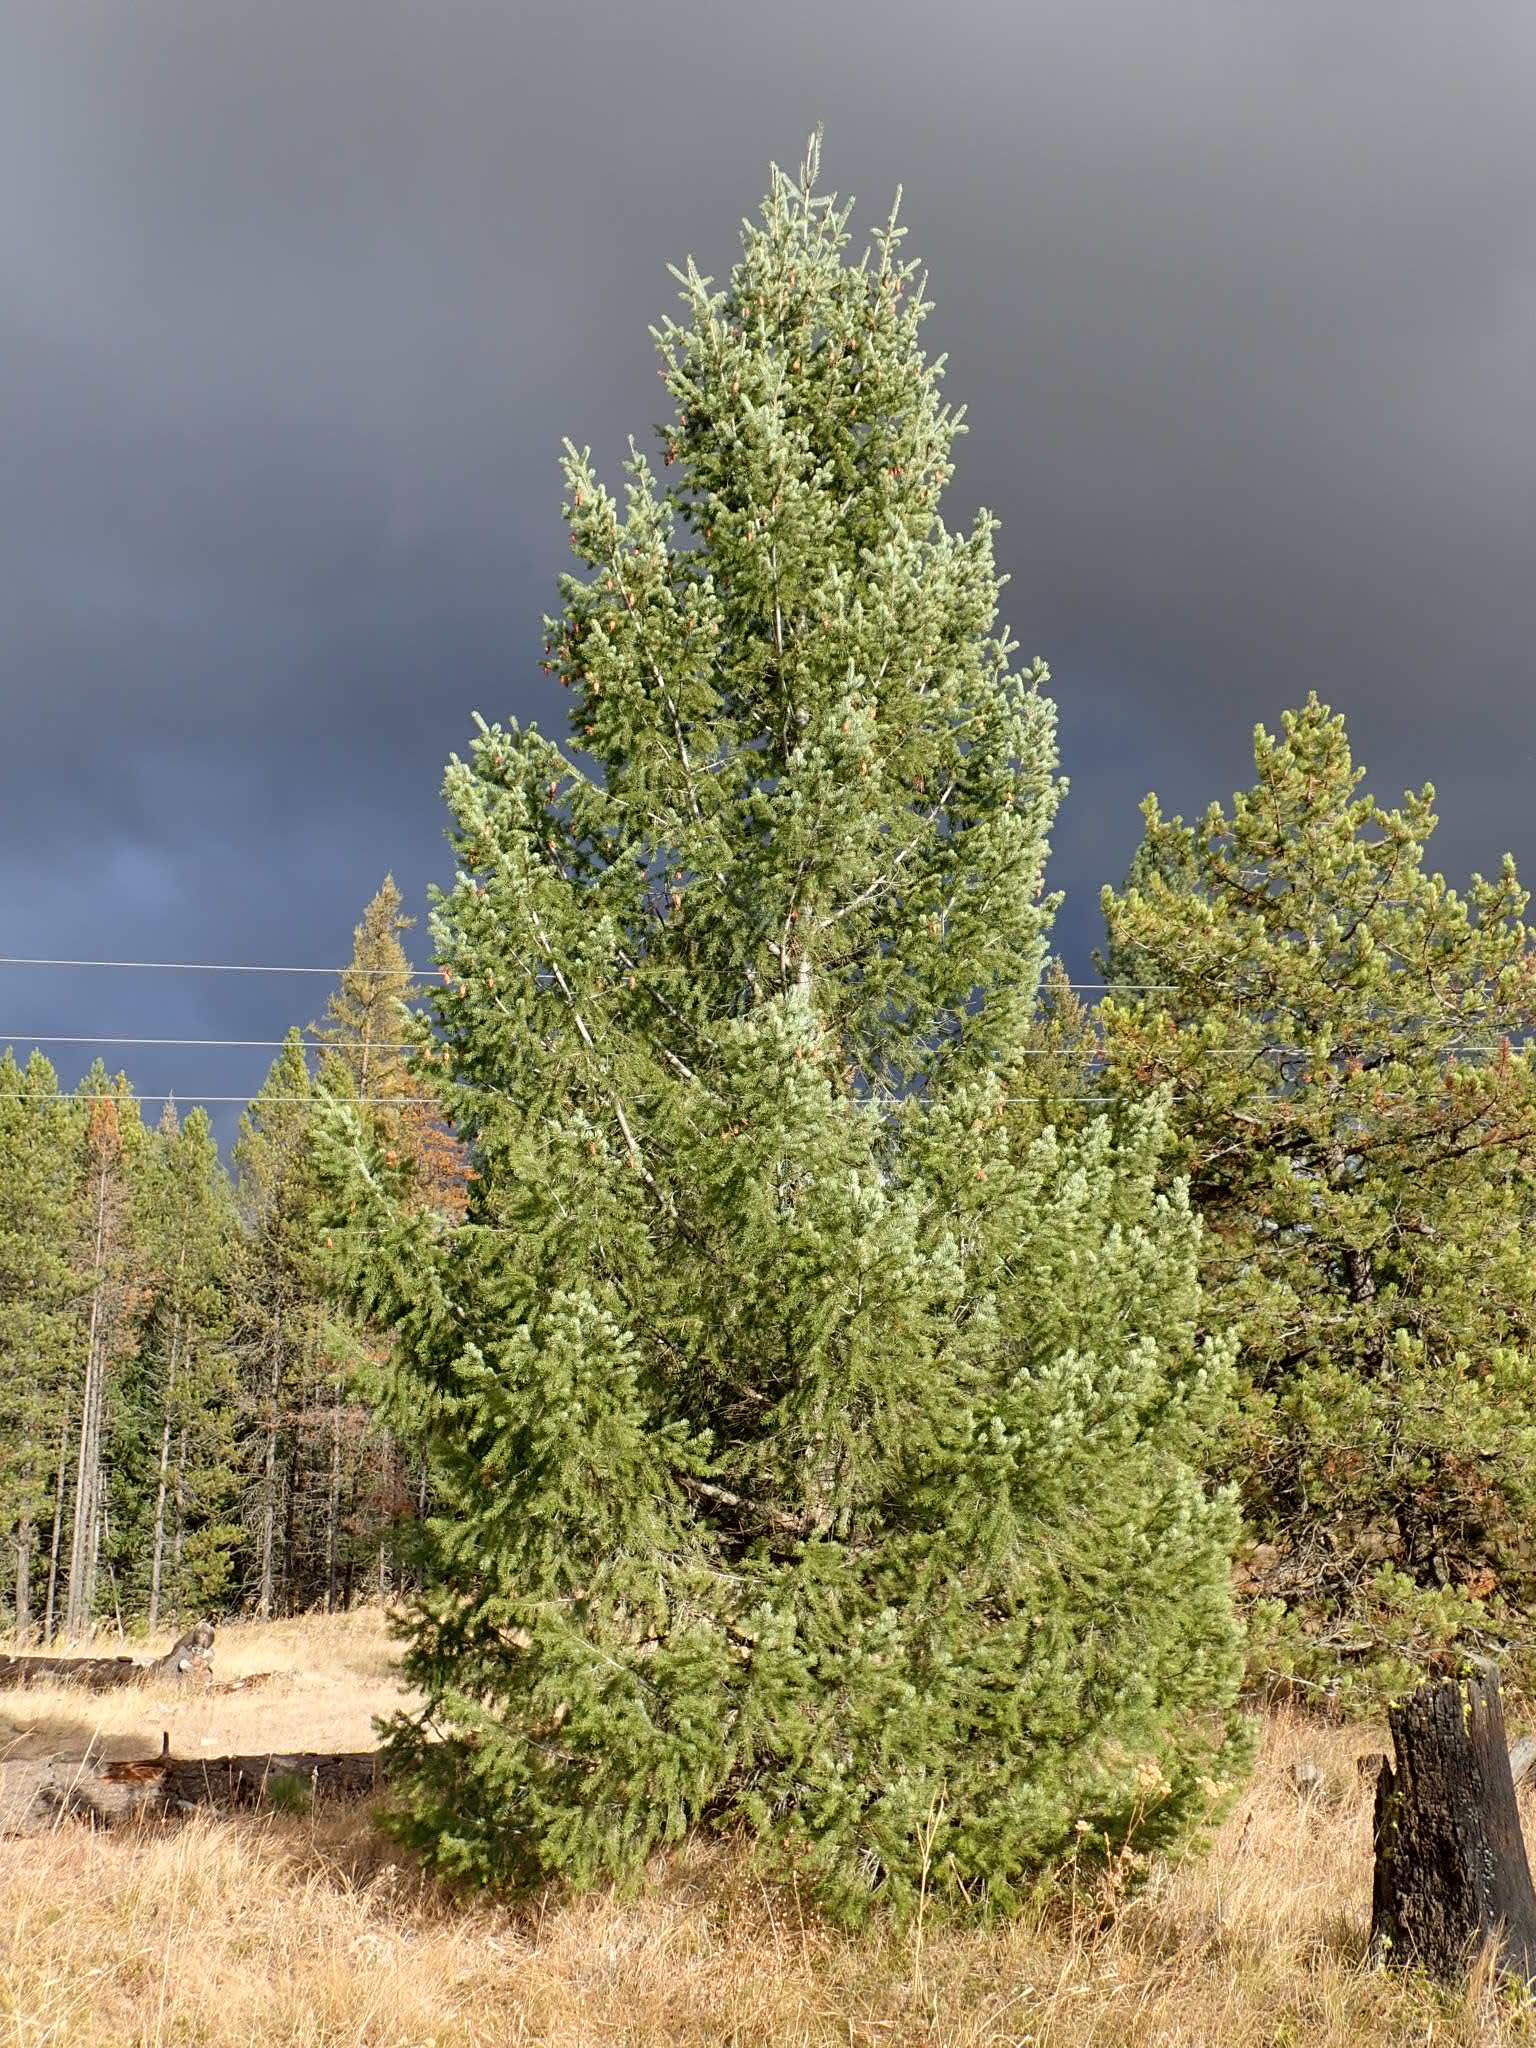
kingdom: Plantae
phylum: Tracheophyta
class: Pinopsida
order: Pinales
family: Pinaceae
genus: Pseudotsuga
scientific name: Pseudotsuga menziesii
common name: Douglas fir
